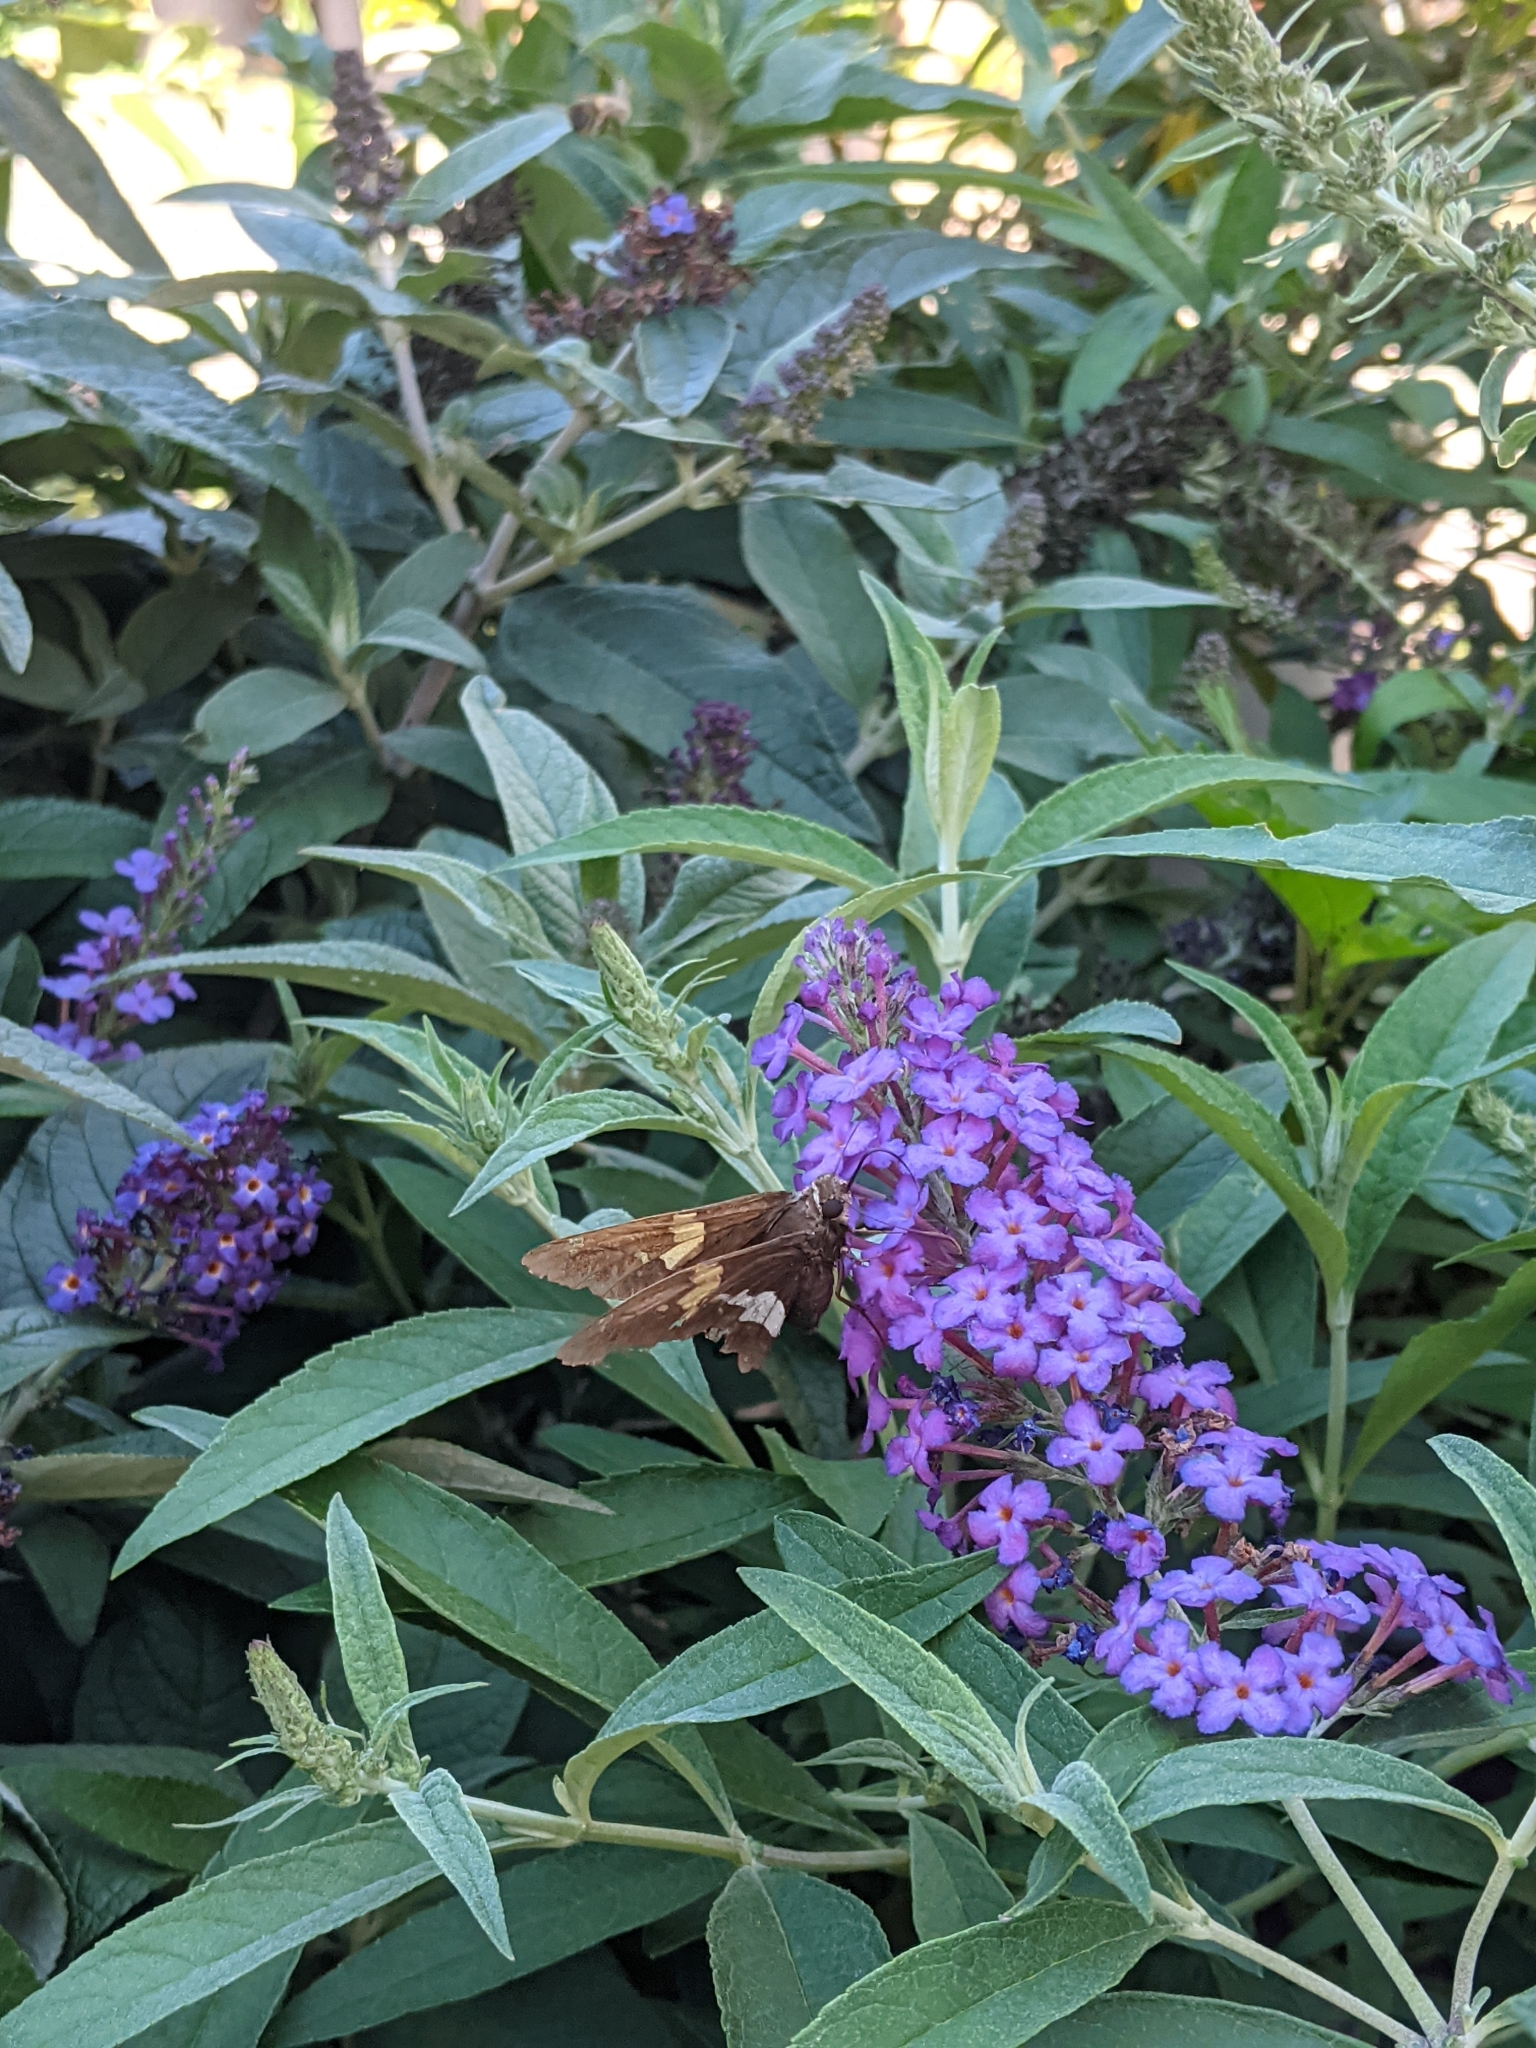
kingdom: Animalia
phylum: Arthropoda
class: Insecta
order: Lepidoptera
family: Hesperiidae
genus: Epargyreus
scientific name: Epargyreus clarus
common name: Silver-spotted skipper
